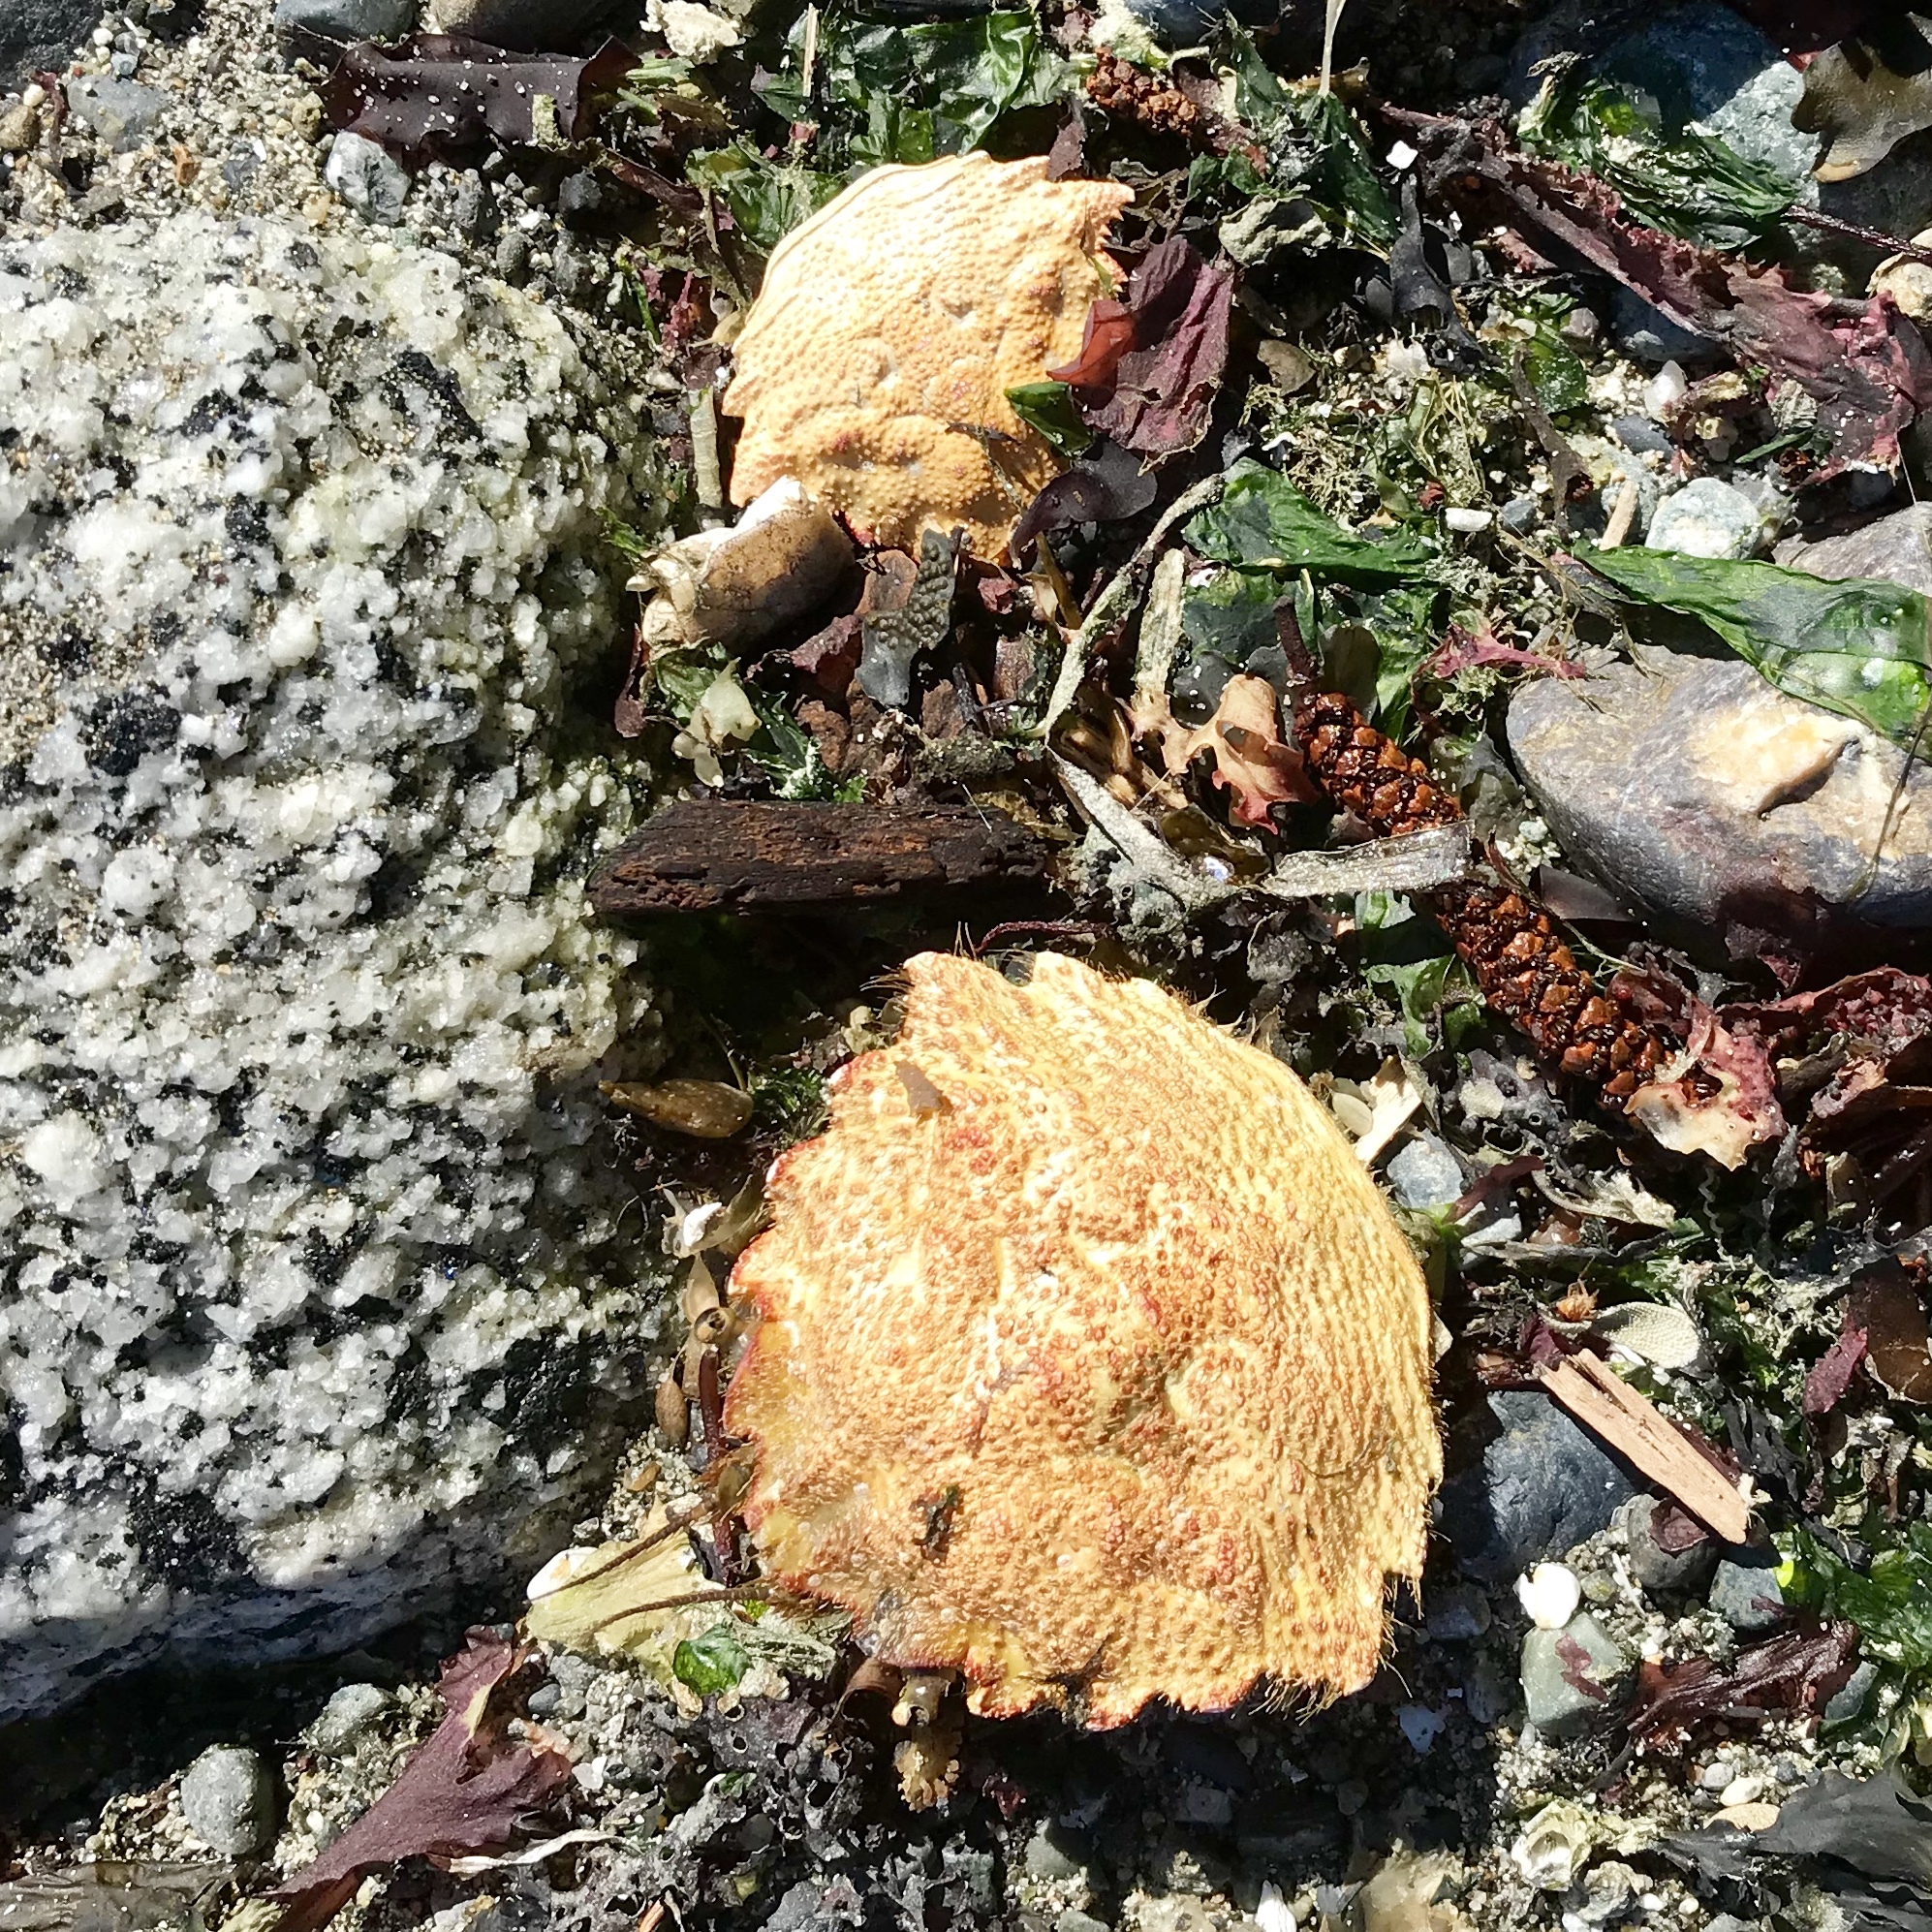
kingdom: Animalia
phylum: Arthropoda
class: Malacostraca
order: Decapoda
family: Cheiragonidae
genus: Telmessus
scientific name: Telmessus cheiragonus
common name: Helmet crab
